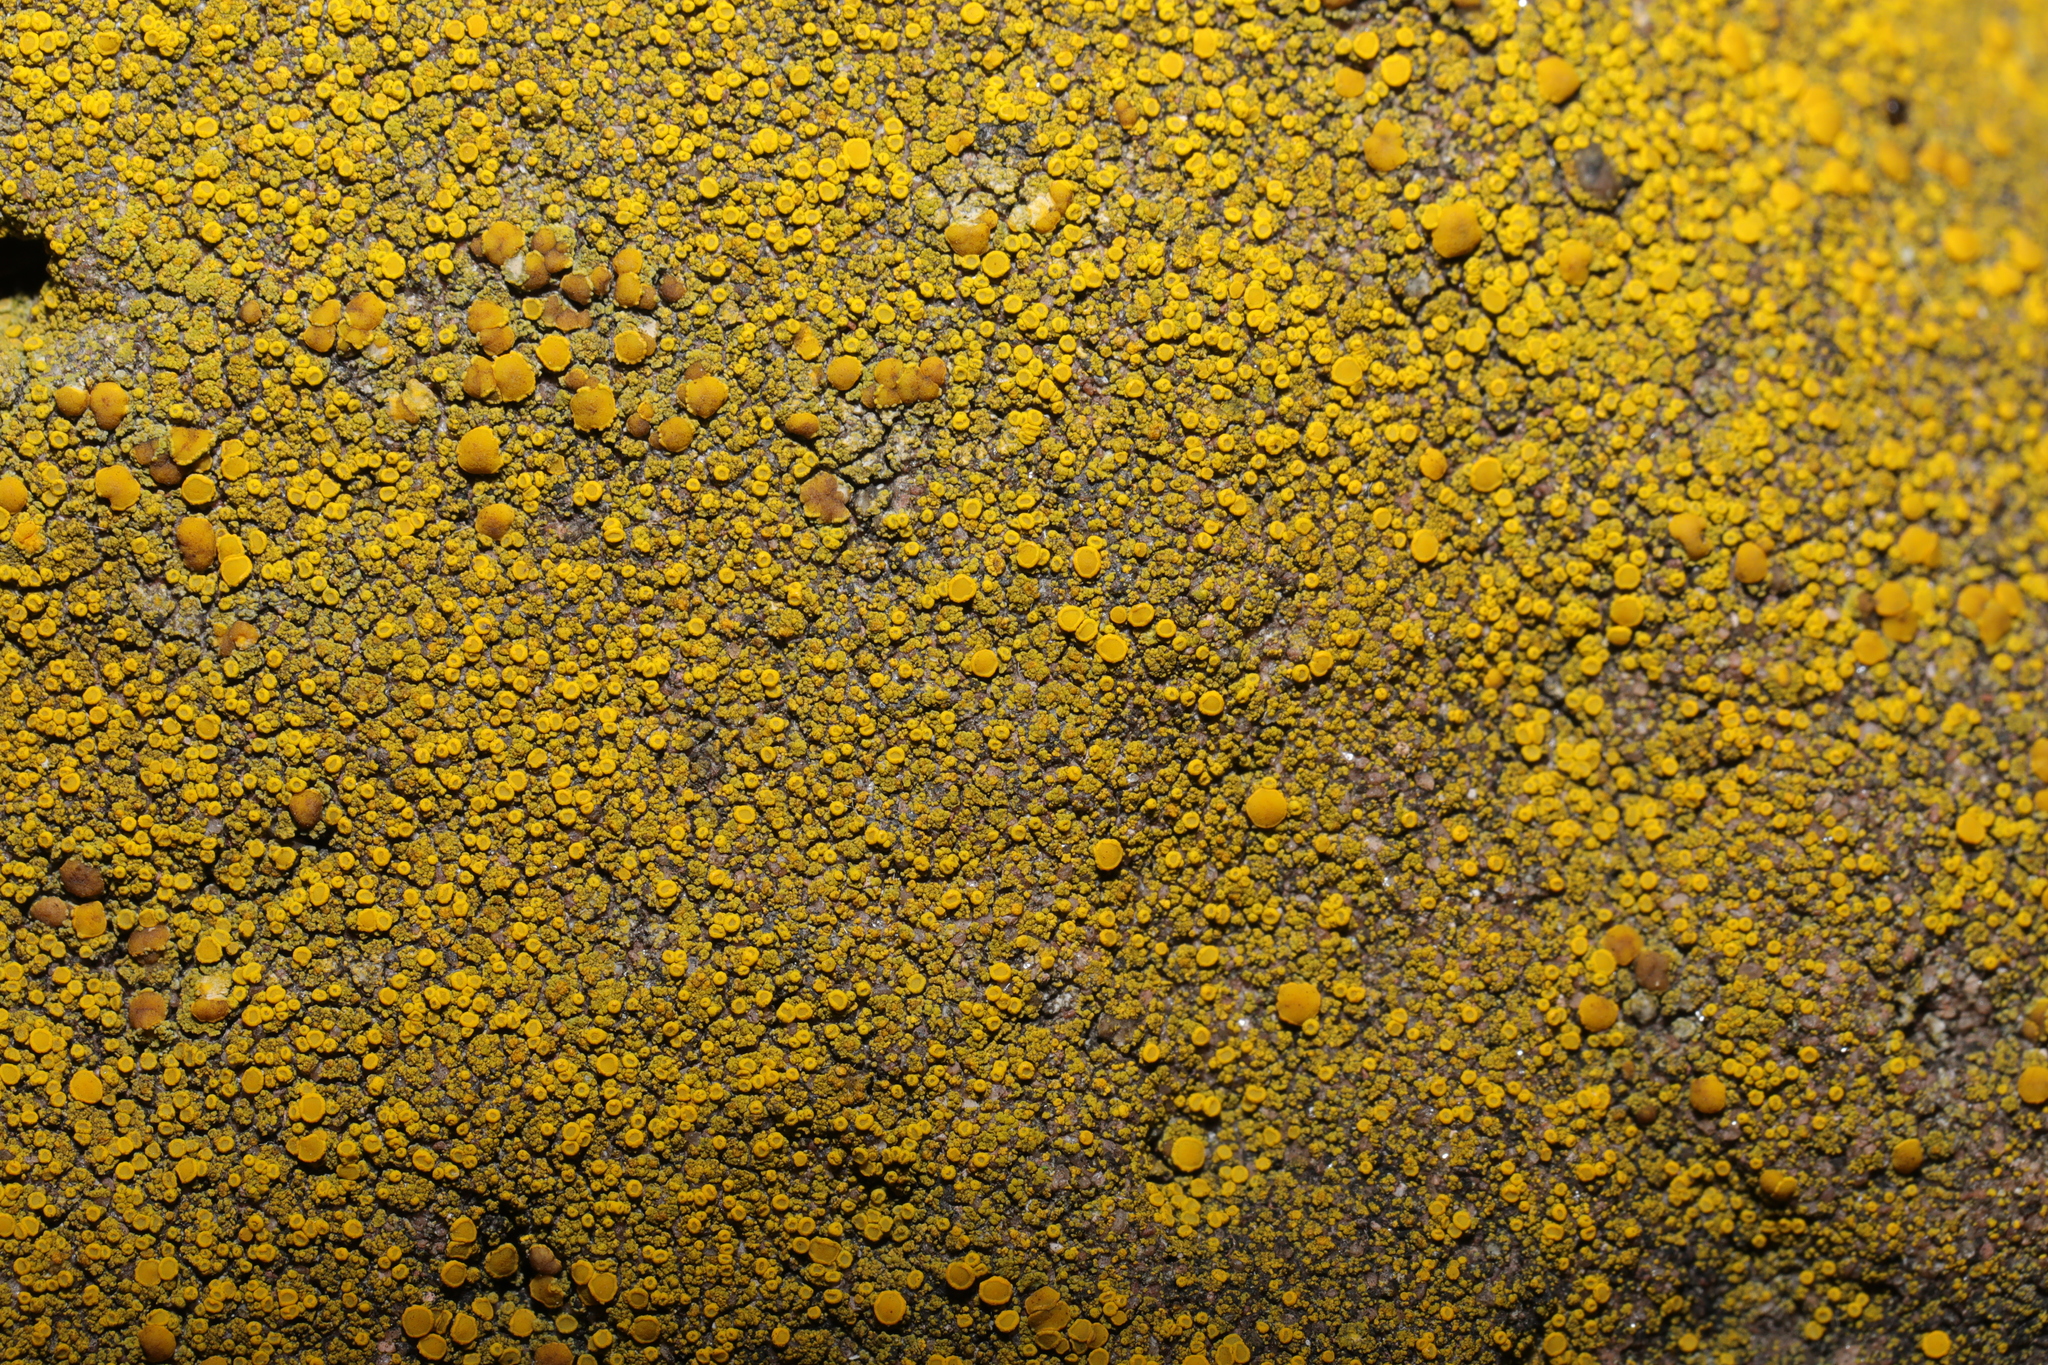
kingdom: Fungi
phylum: Ascomycota
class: Candelariomycetes
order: Candelariales
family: Candelariaceae
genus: Candelariella
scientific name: Candelariella vitellina
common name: Common goldspeck
